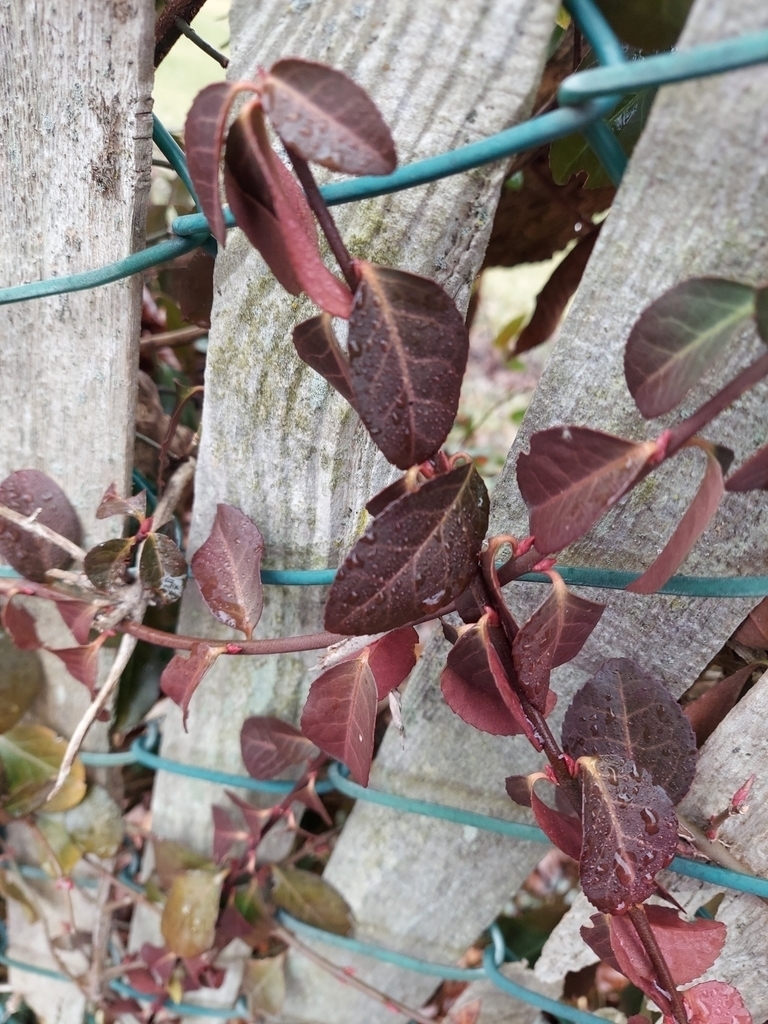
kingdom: Plantae
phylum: Tracheophyta
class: Magnoliopsida
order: Celastrales
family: Celastraceae
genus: Euonymus
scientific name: Euonymus fortunei
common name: Climbing euonymus
